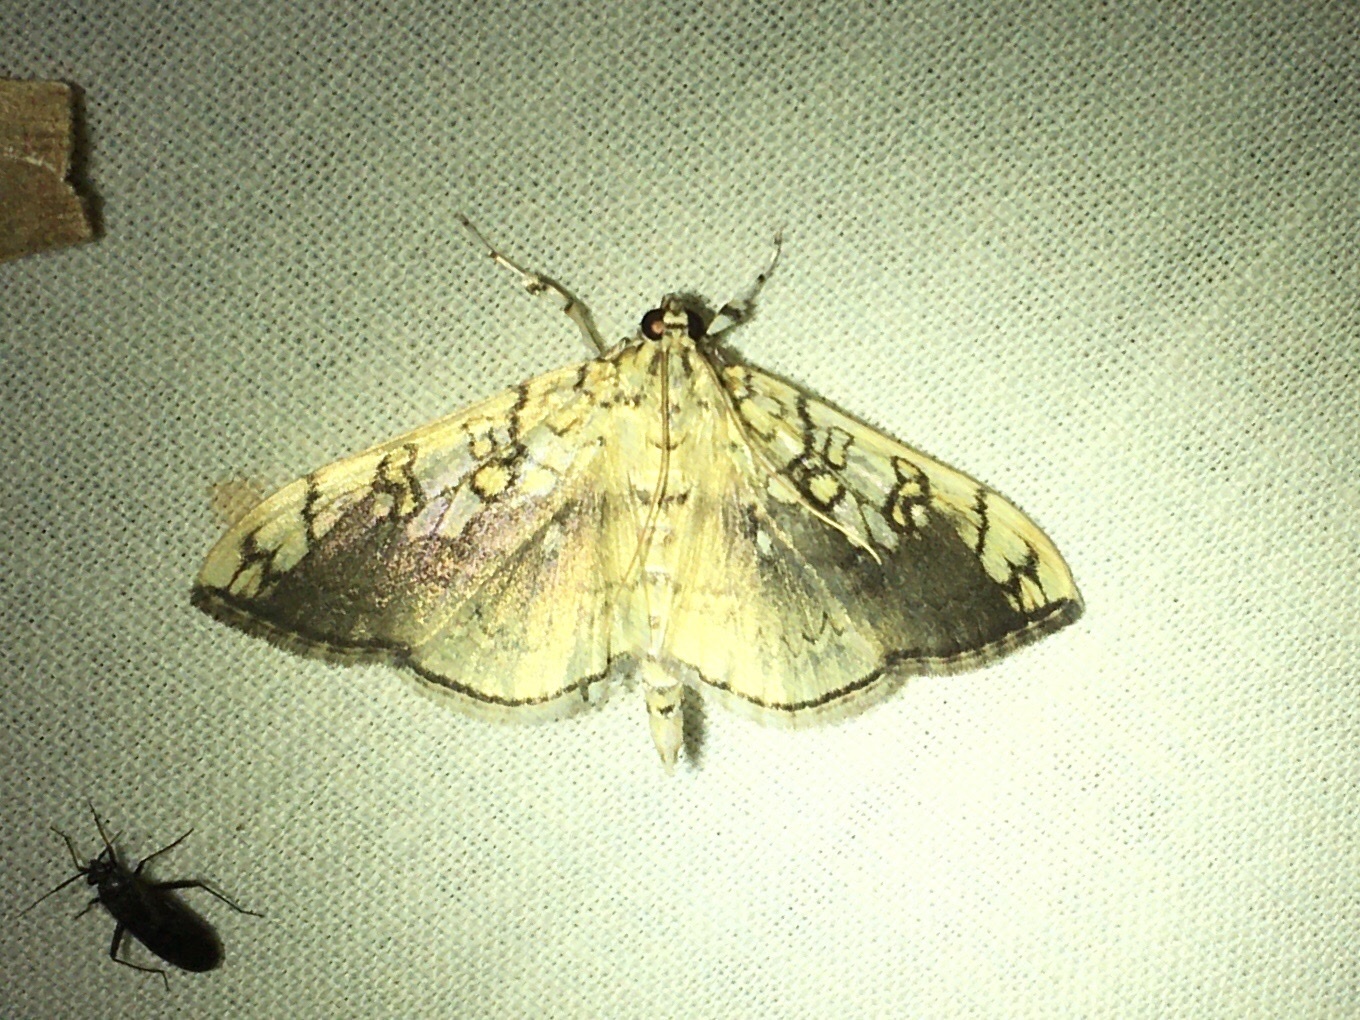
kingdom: Animalia
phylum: Arthropoda
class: Insecta
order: Lepidoptera
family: Crambidae
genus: Pantographa
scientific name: Pantographa limata
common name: Basswood leafroller moth
